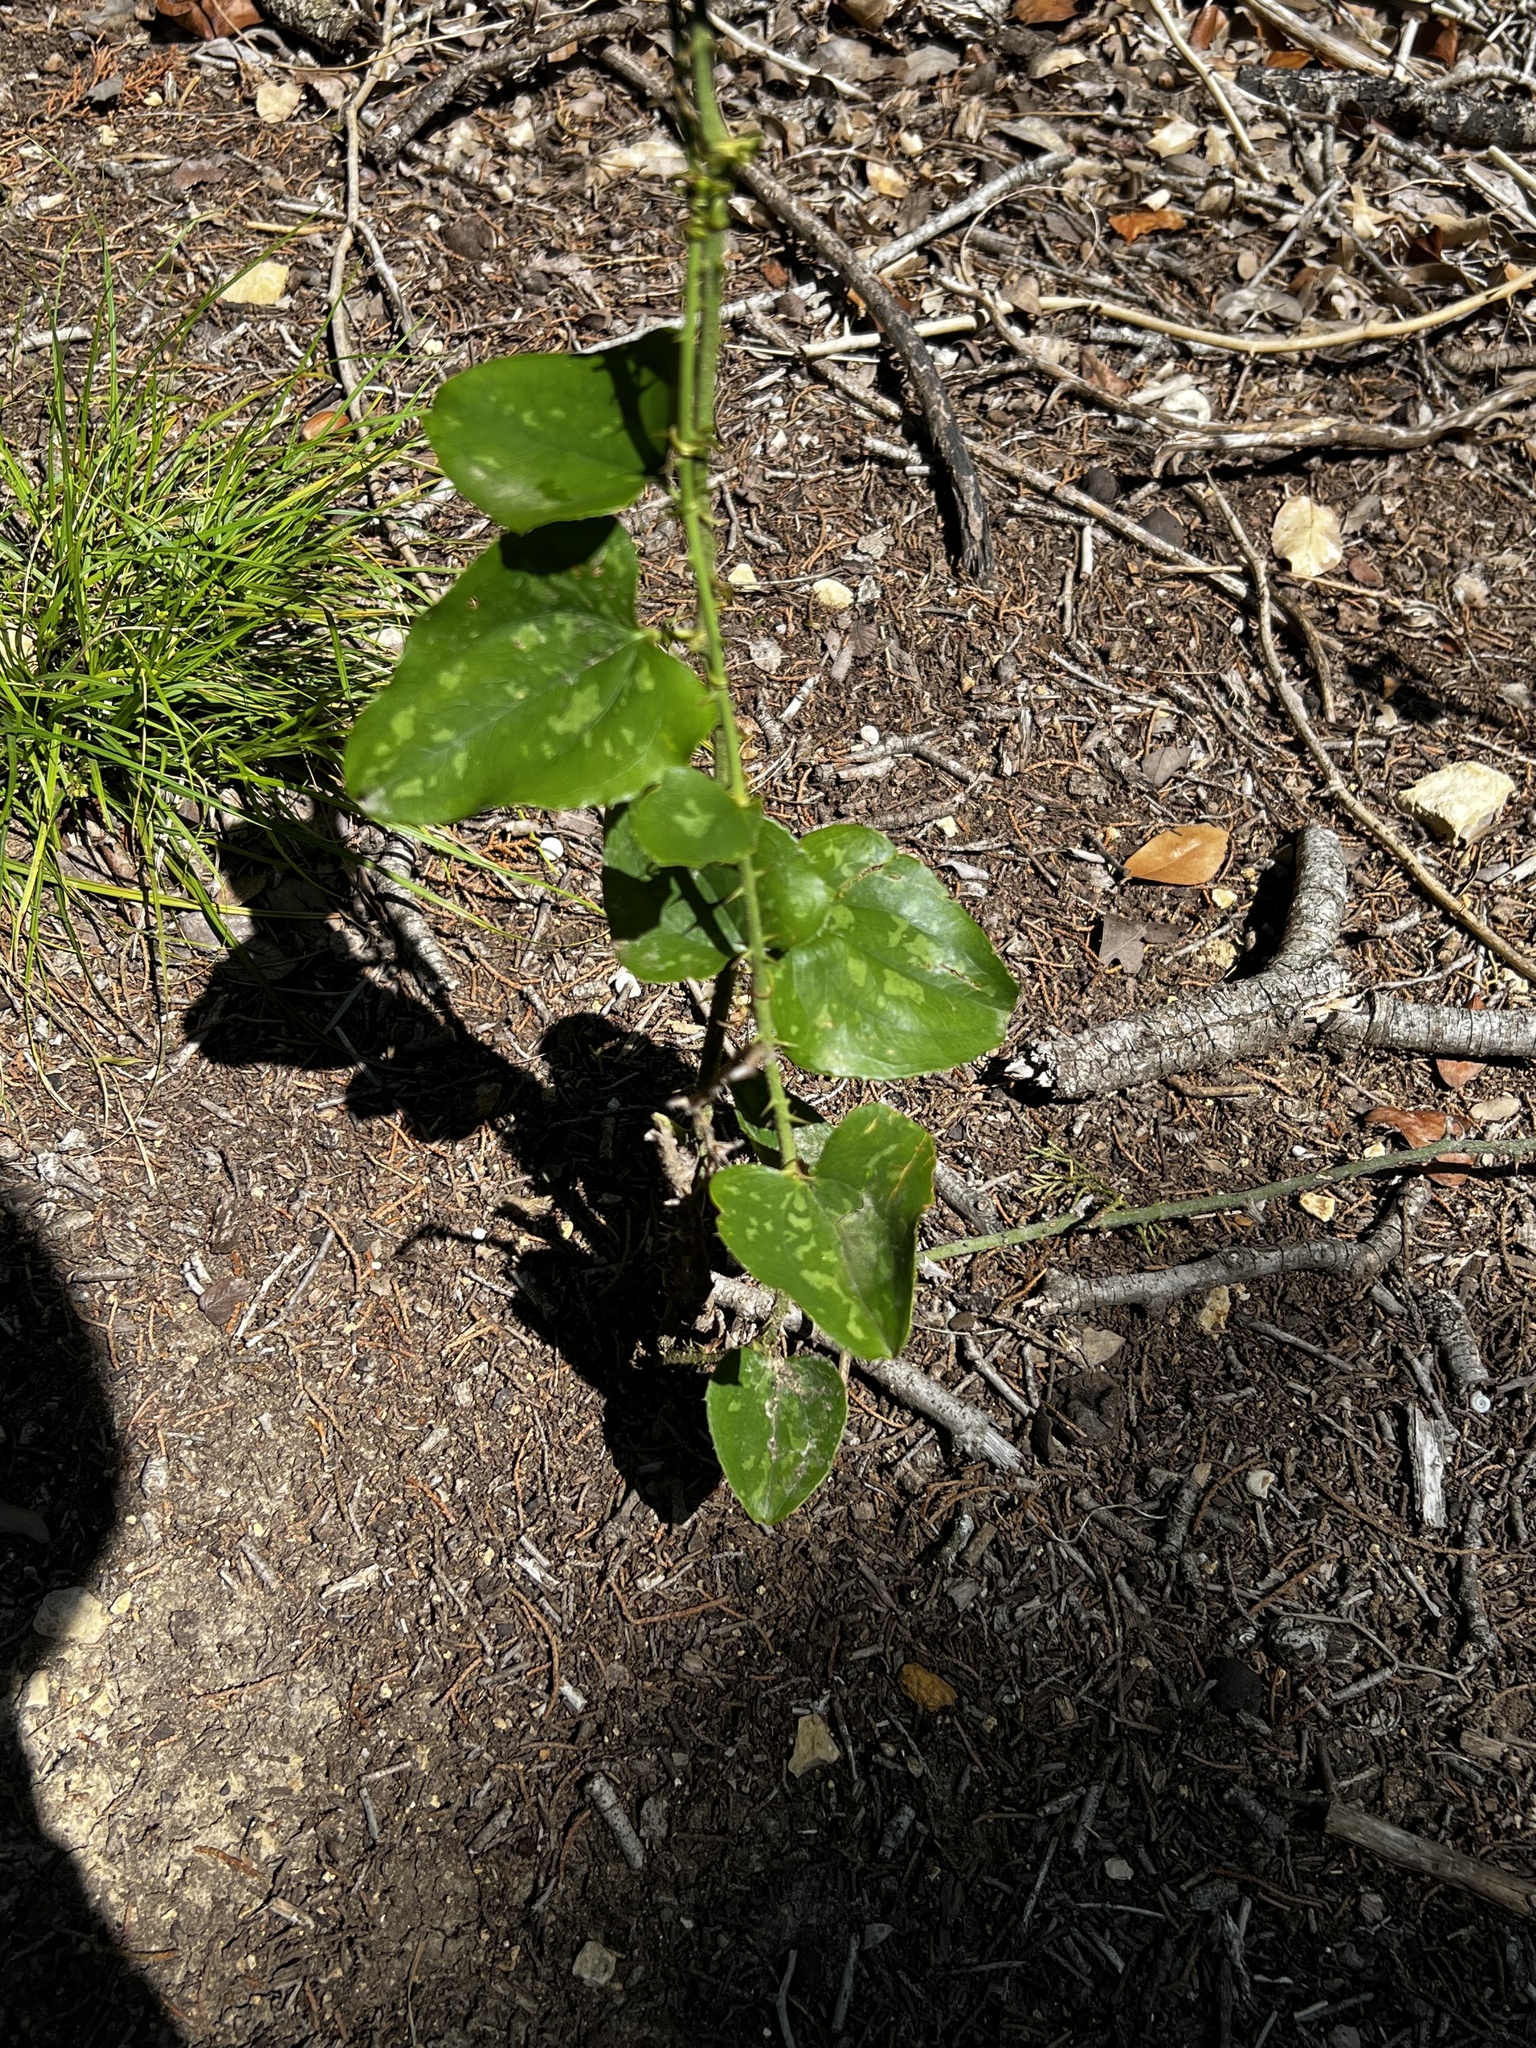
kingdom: Plantae
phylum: Tracheophyta
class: Liliopsida
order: Liliales
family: Smilacaceae
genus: Smilax
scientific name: Smilax bona-nox
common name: Catbrier
